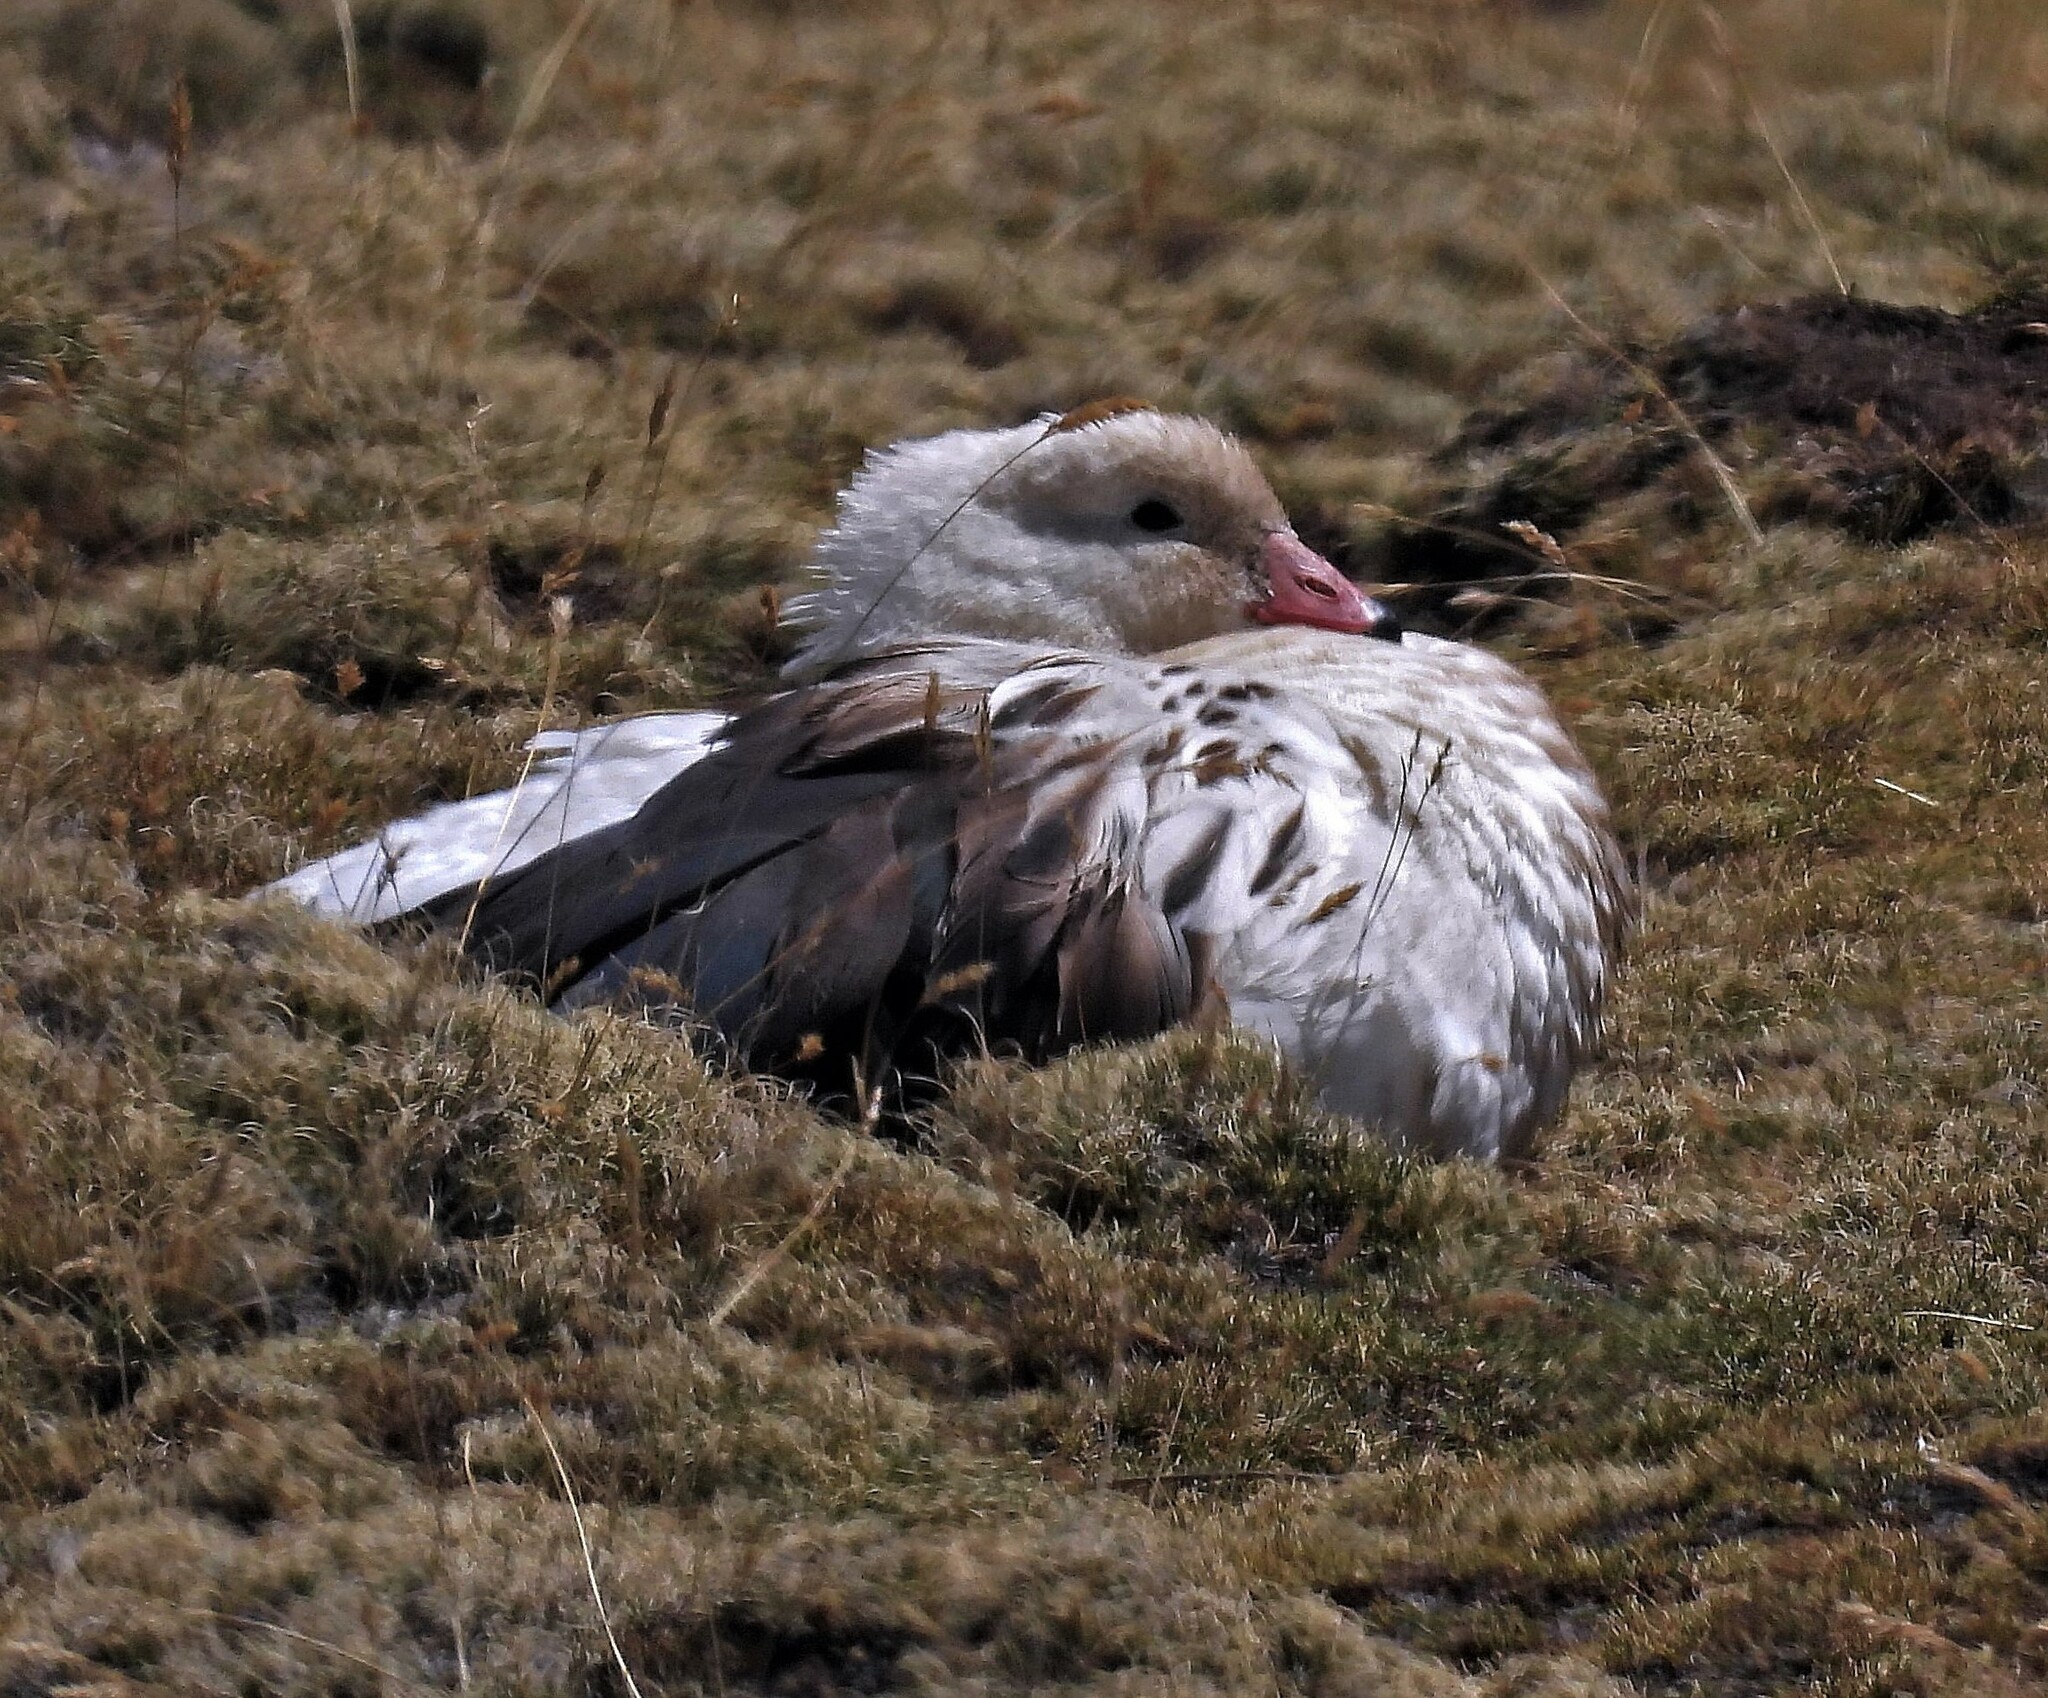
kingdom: Animalia
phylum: Chordata
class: Aves
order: Anseriformes
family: Anatidae
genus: Chloephaga
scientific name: Chloephaga melanoptera
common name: Andean goose
